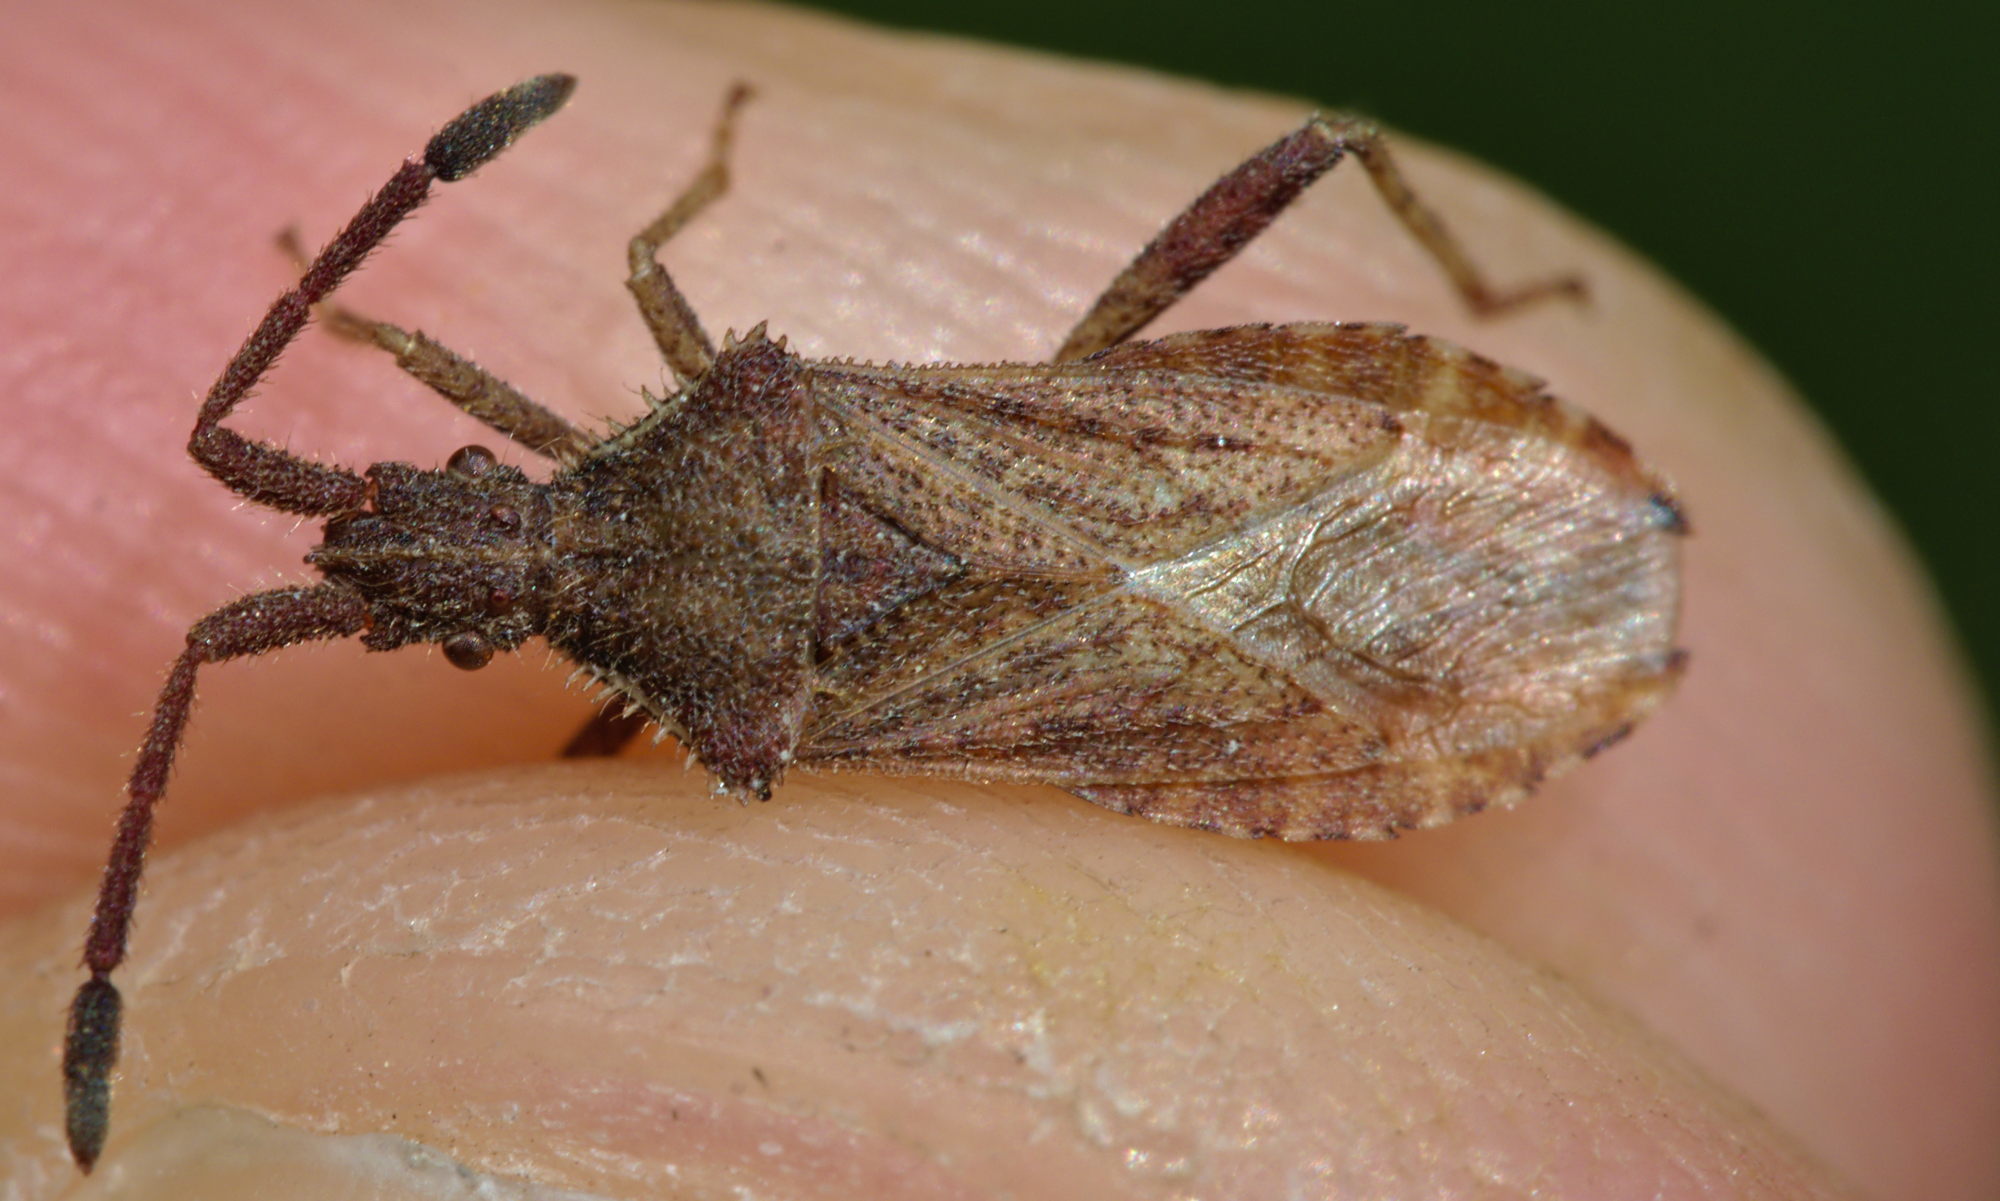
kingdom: Animalia
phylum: Arthropoda
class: Insecta
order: Hemiptera
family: Coreidae
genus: Coriomeris
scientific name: Coriomeris denticulatus
